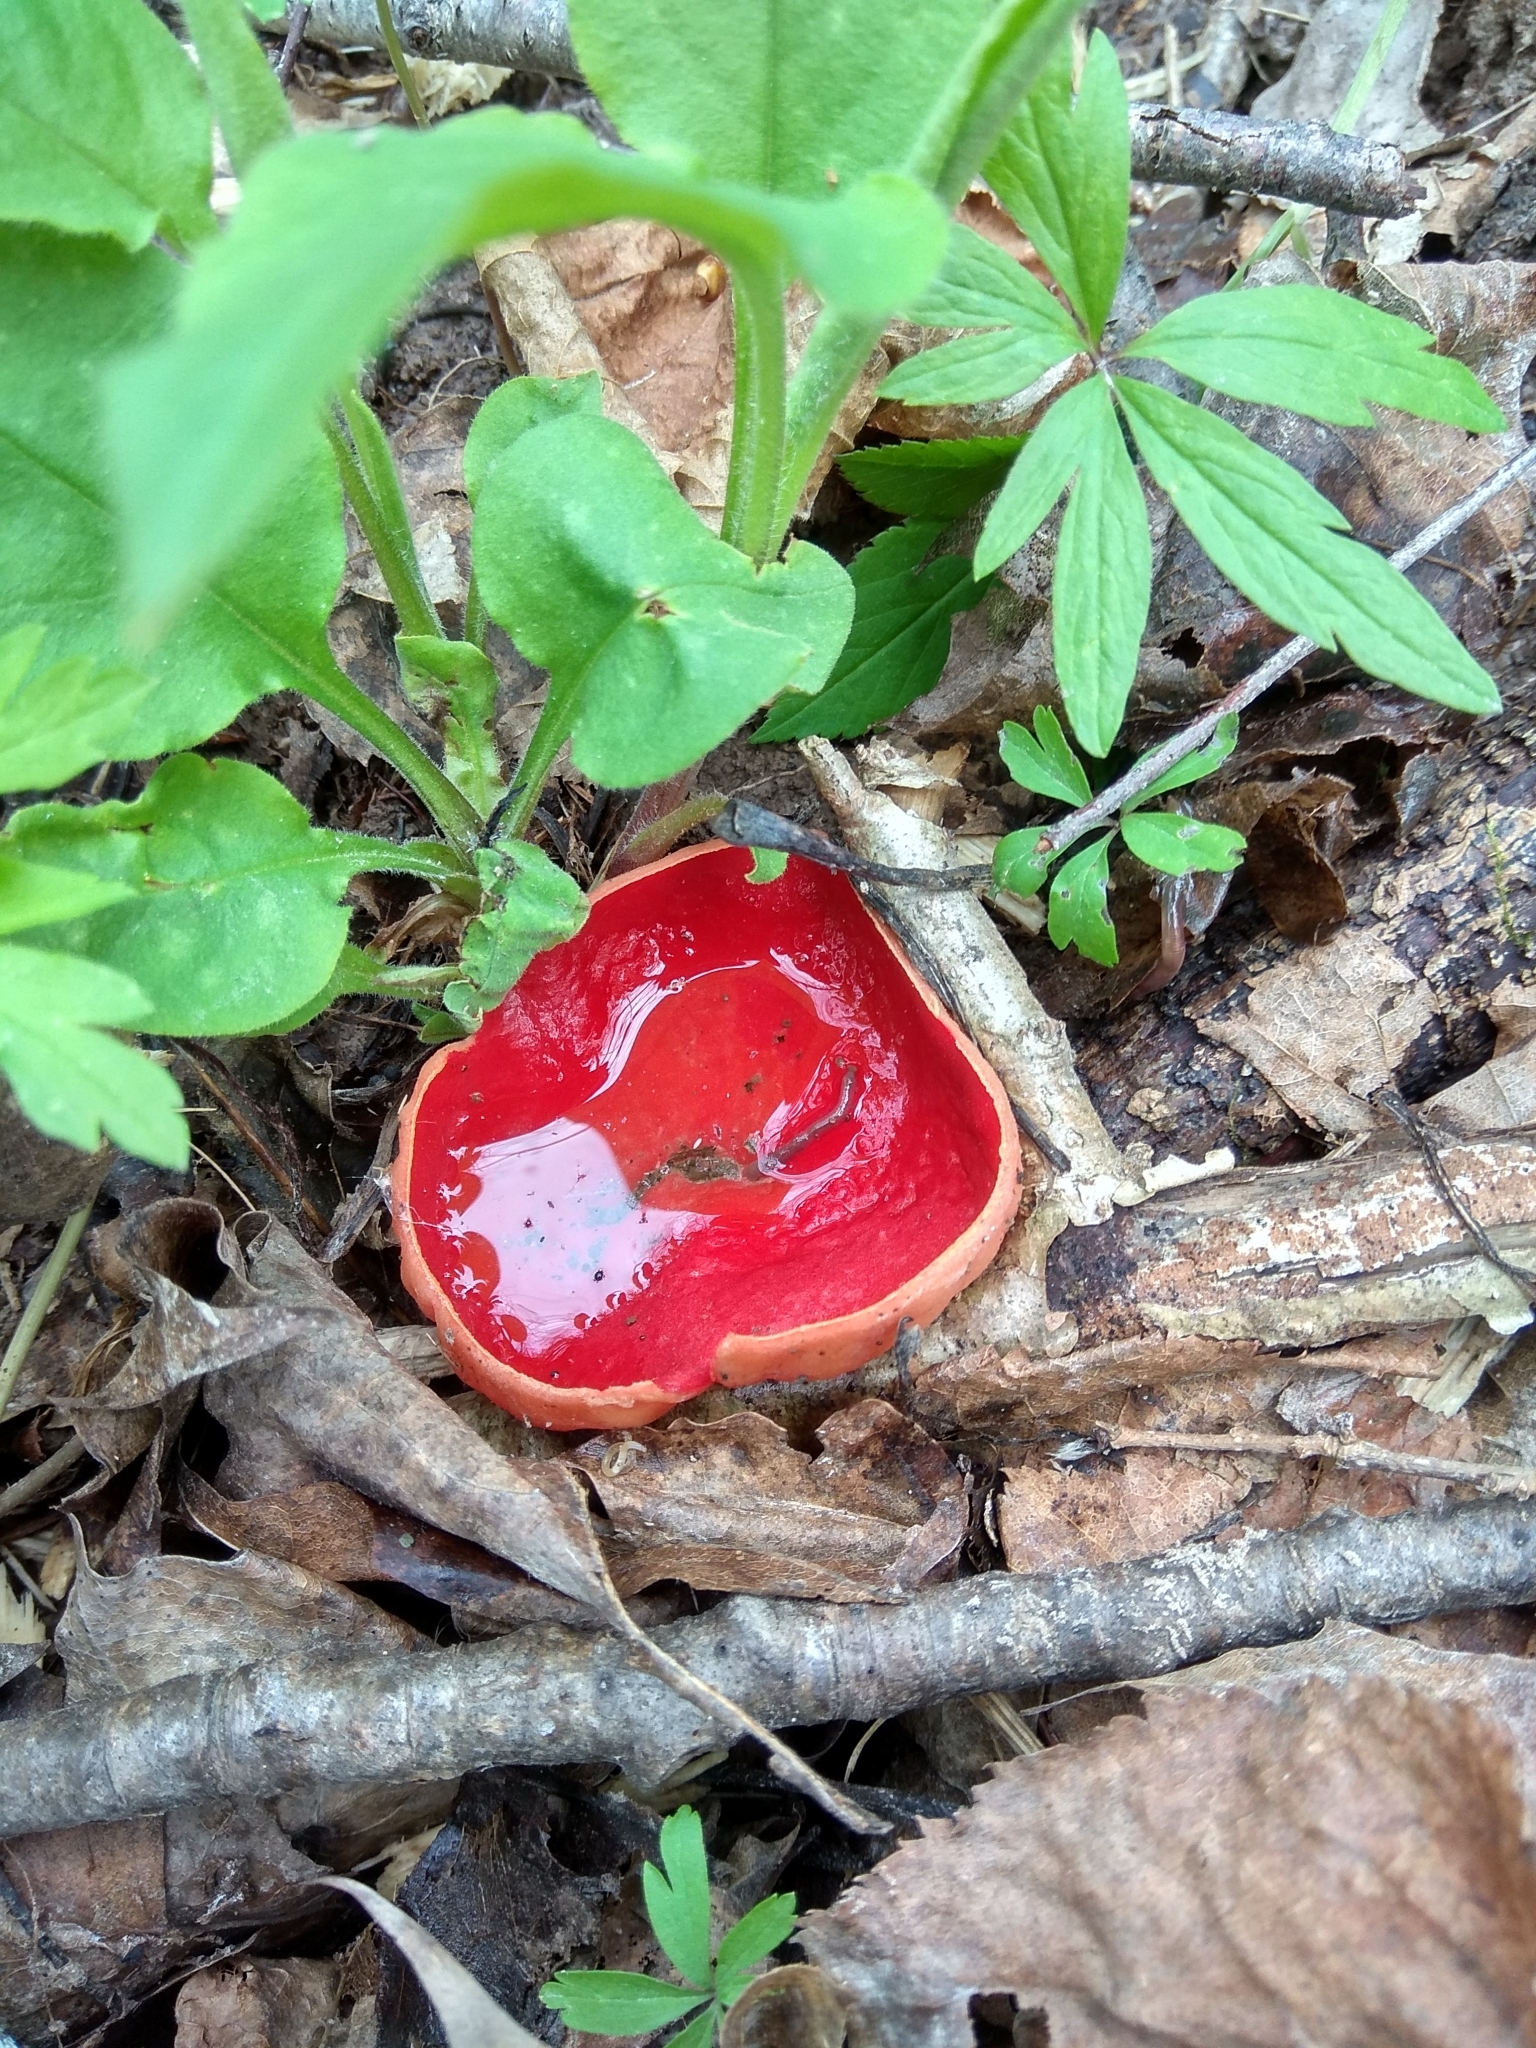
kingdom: Fungi
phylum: Ascomycota
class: Pezizomycetes
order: Pezizales
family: Sarcoscyphaceae
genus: Sarcoscypha
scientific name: Sarcoscypha
